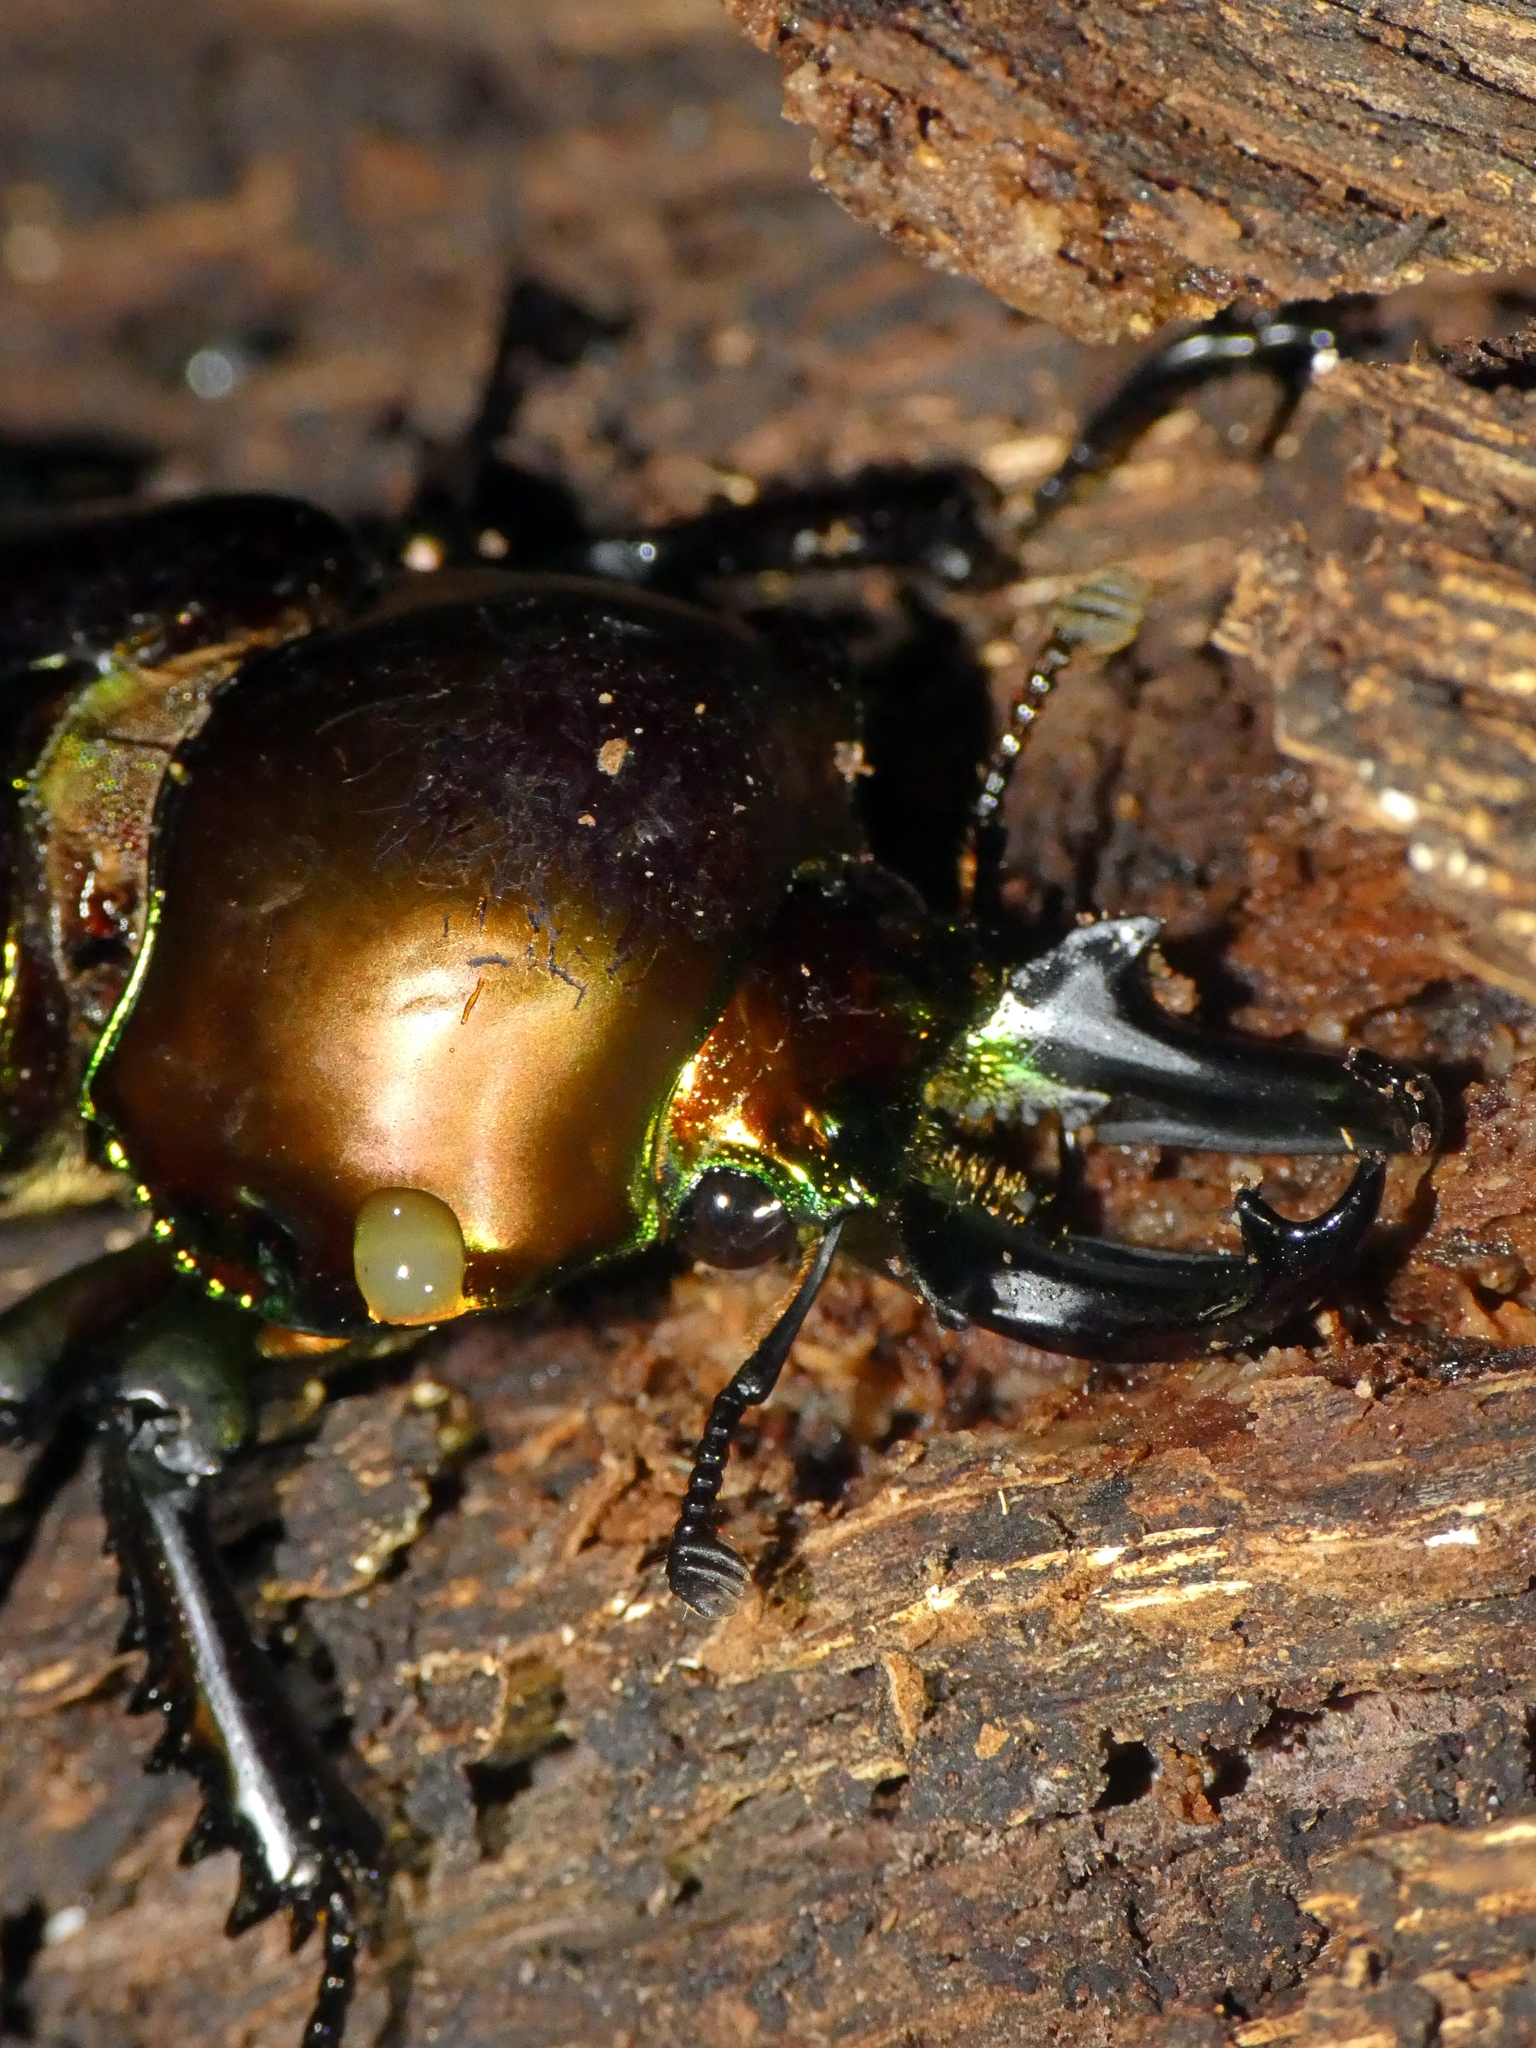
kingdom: Animalia
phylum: Arthropoda
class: Insecta
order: Coleoptera
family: Lucanidae
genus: Phalacrognathus
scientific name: Phalacrognathus muelleri
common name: King stag beetle
